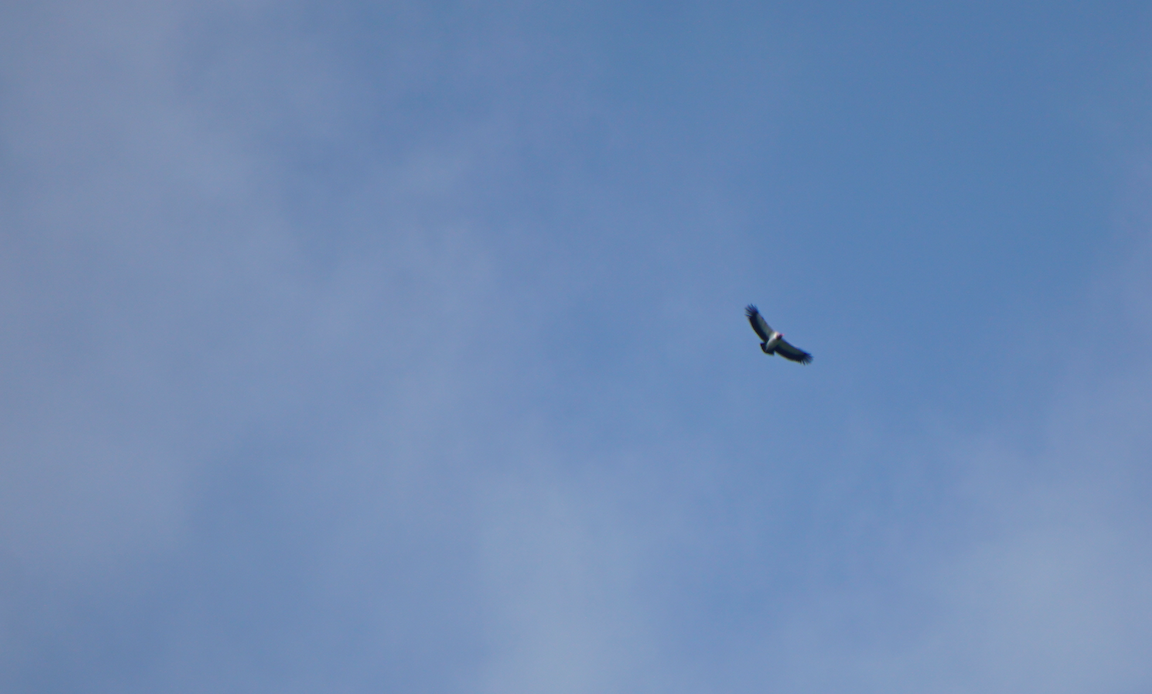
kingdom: Animalia
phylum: Chordata
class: Aves
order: Accipitriformes
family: Cathartidae
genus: Sarcoramphus
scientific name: Sarcoramphus papa
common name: King vulture
